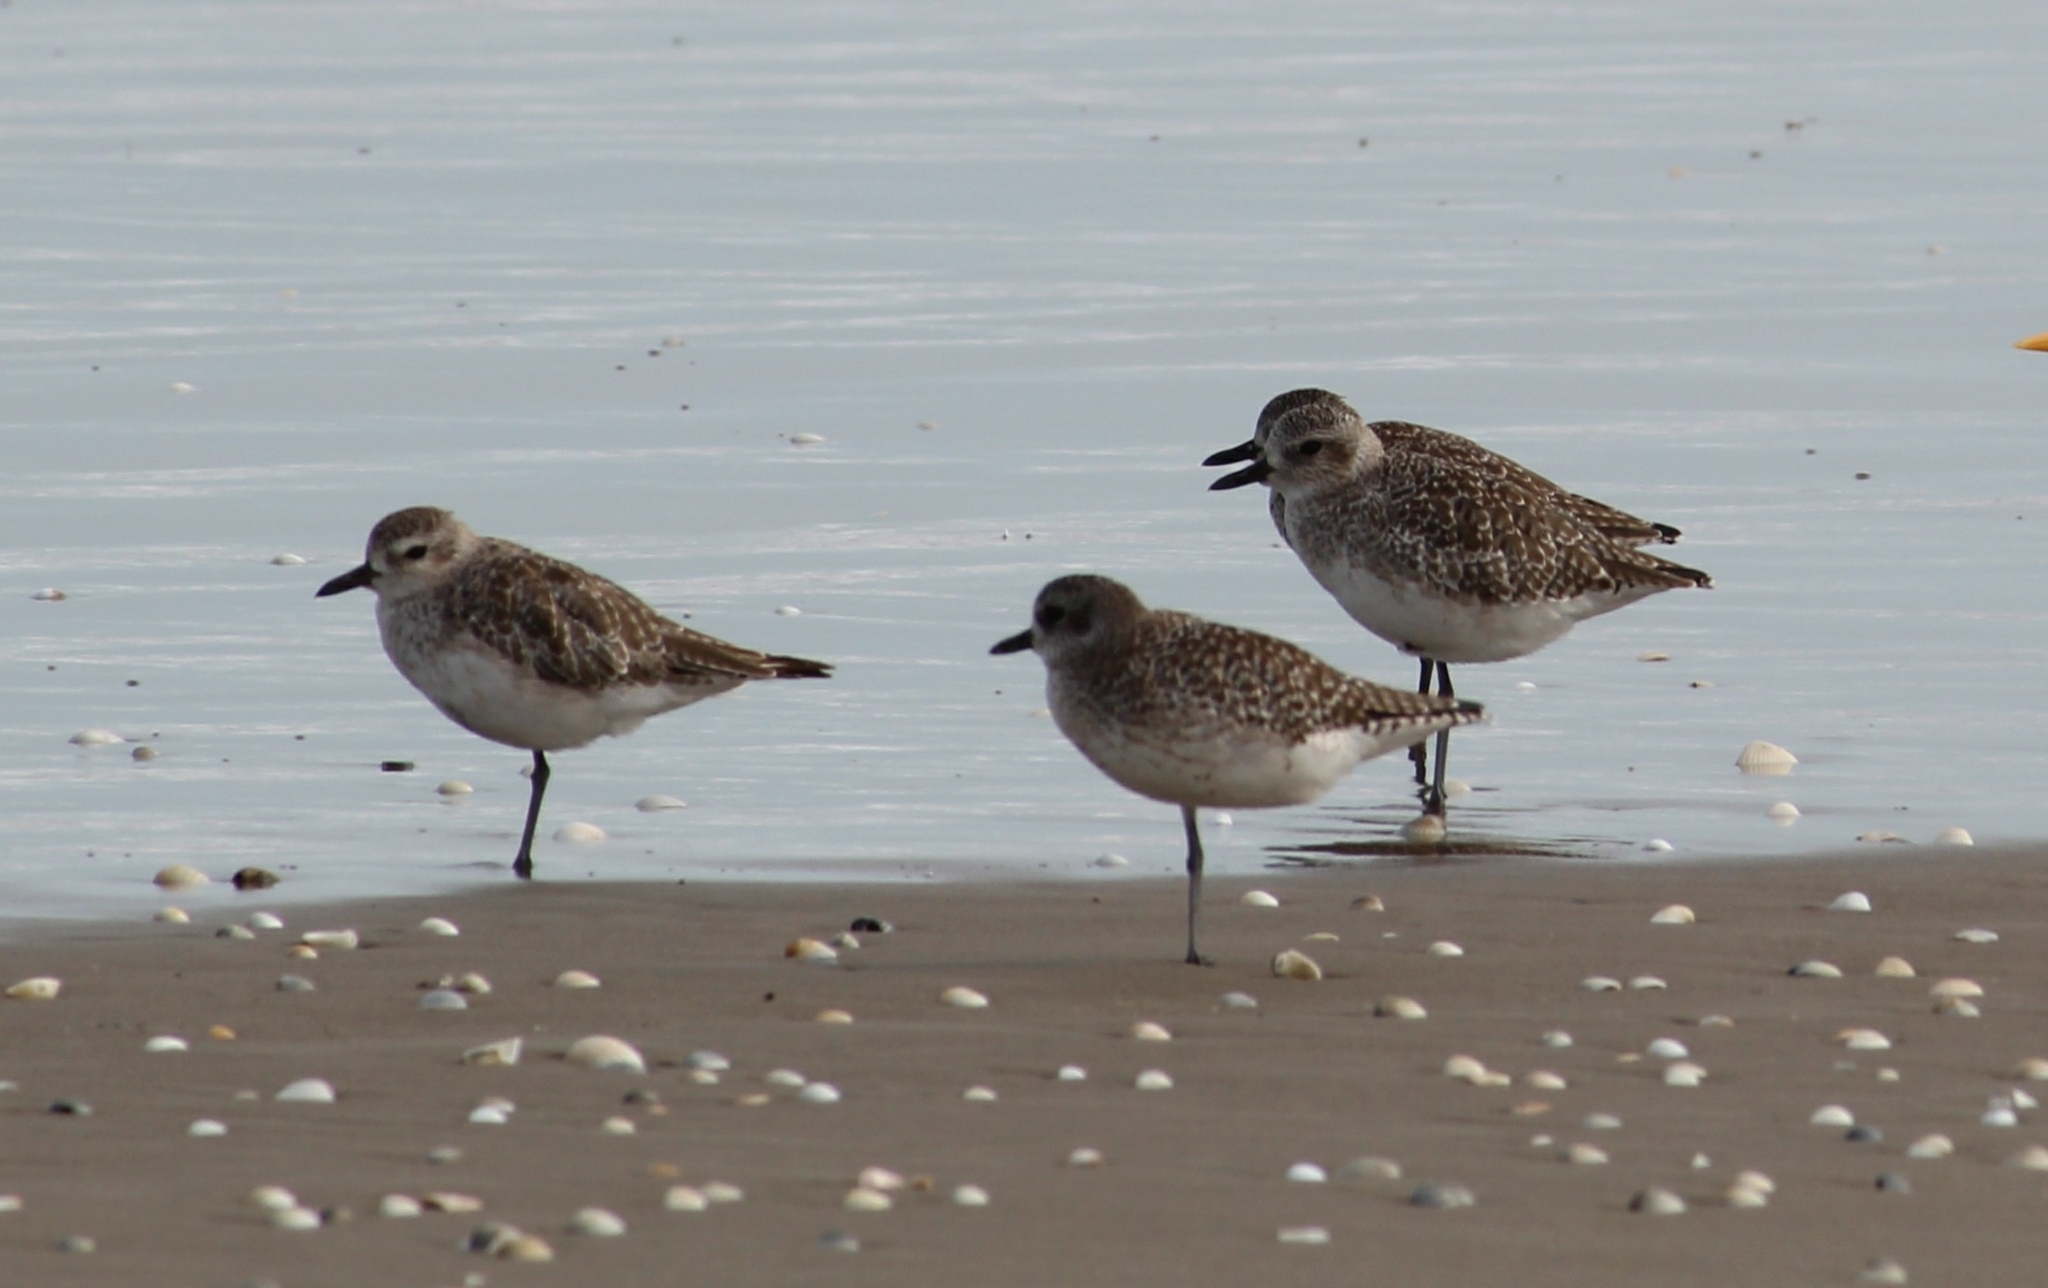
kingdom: Animalia
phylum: Chordata
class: Aves
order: Charadriiformes
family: Charadriidae
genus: Pluvialis
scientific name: Pluvialis squatarola
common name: Grey plover
